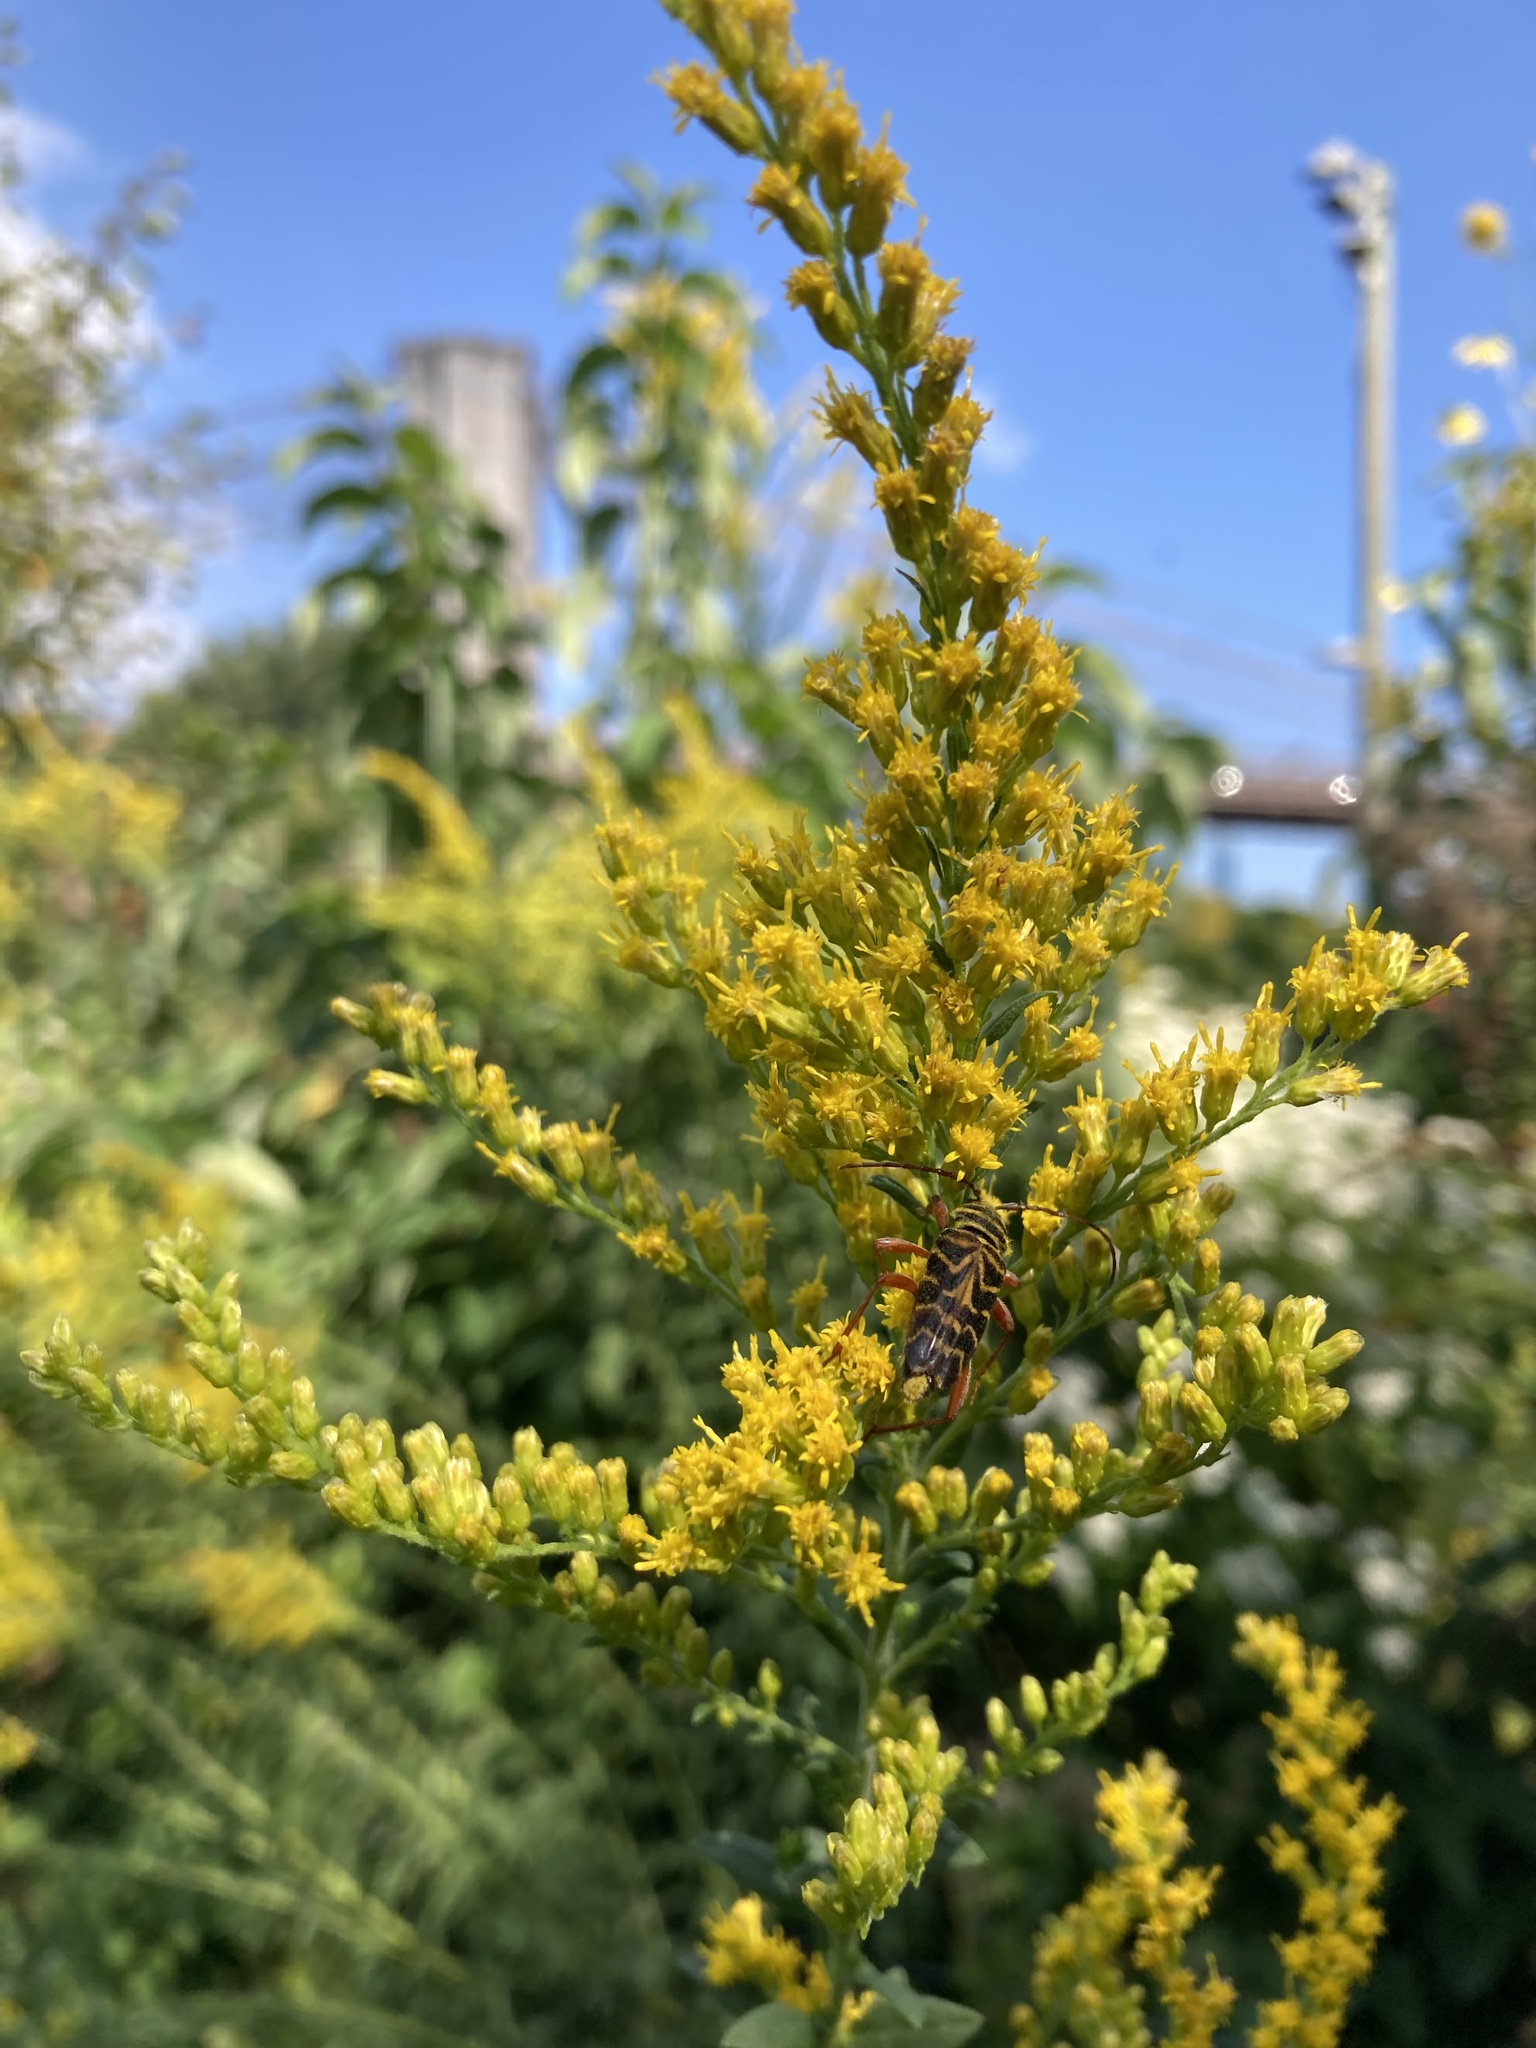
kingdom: Animalia
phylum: Arthropoda
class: Insecta
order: Coleoptera
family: Cerambycidae
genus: Megacyllene
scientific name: Megacyllene robiniae
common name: Locust borer
